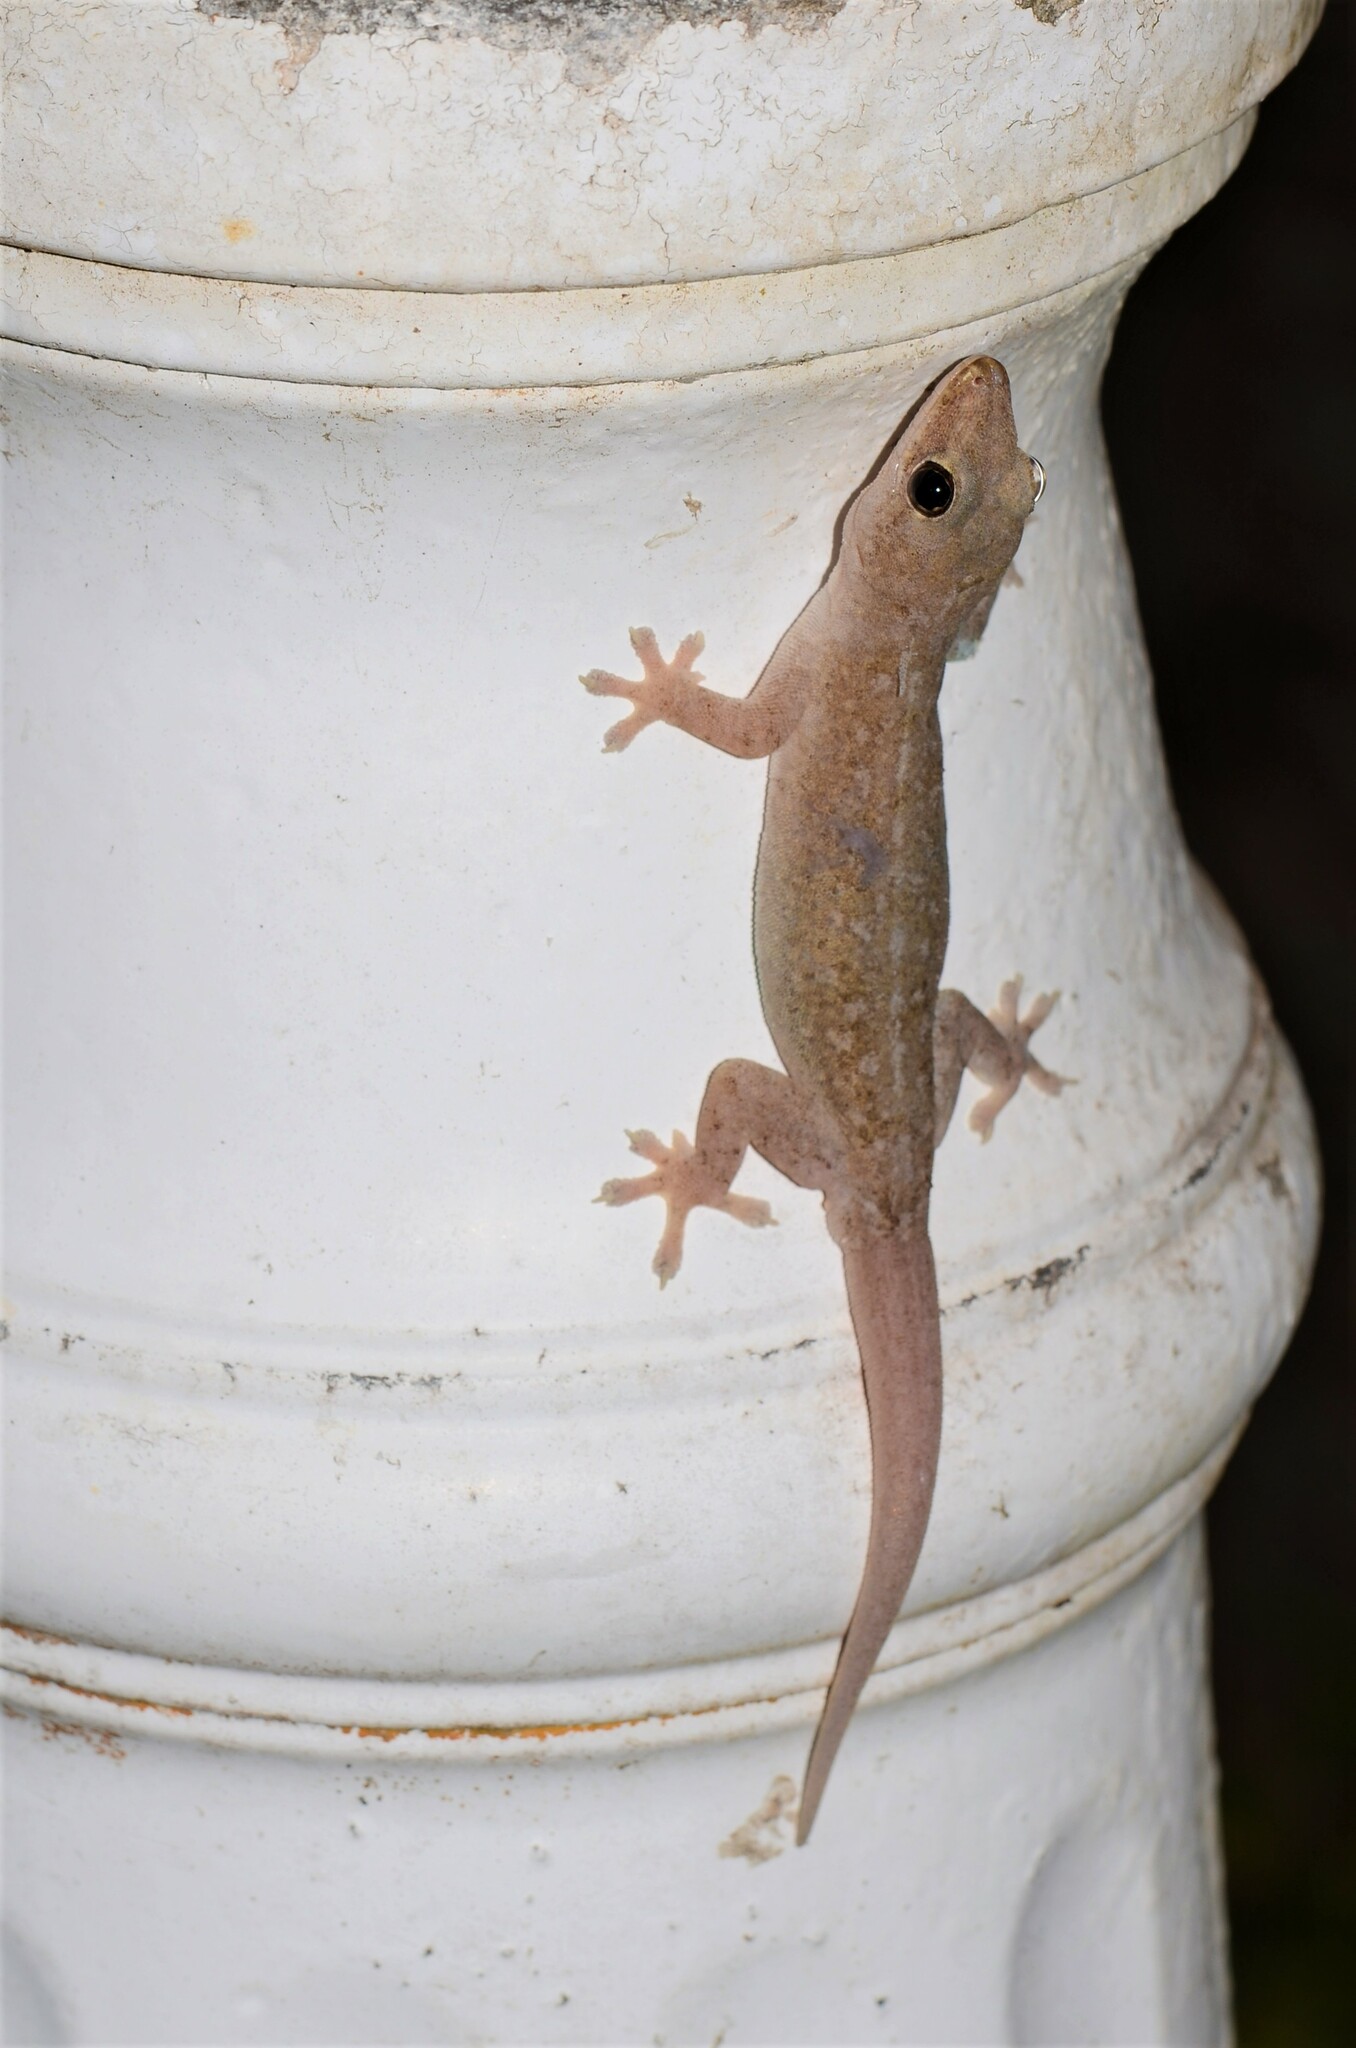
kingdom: Animalia
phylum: Chordata
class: Squamata
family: Gekkonidae
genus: Hemidactylus
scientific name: Hemidactylus frenatus
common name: Common house gecko
